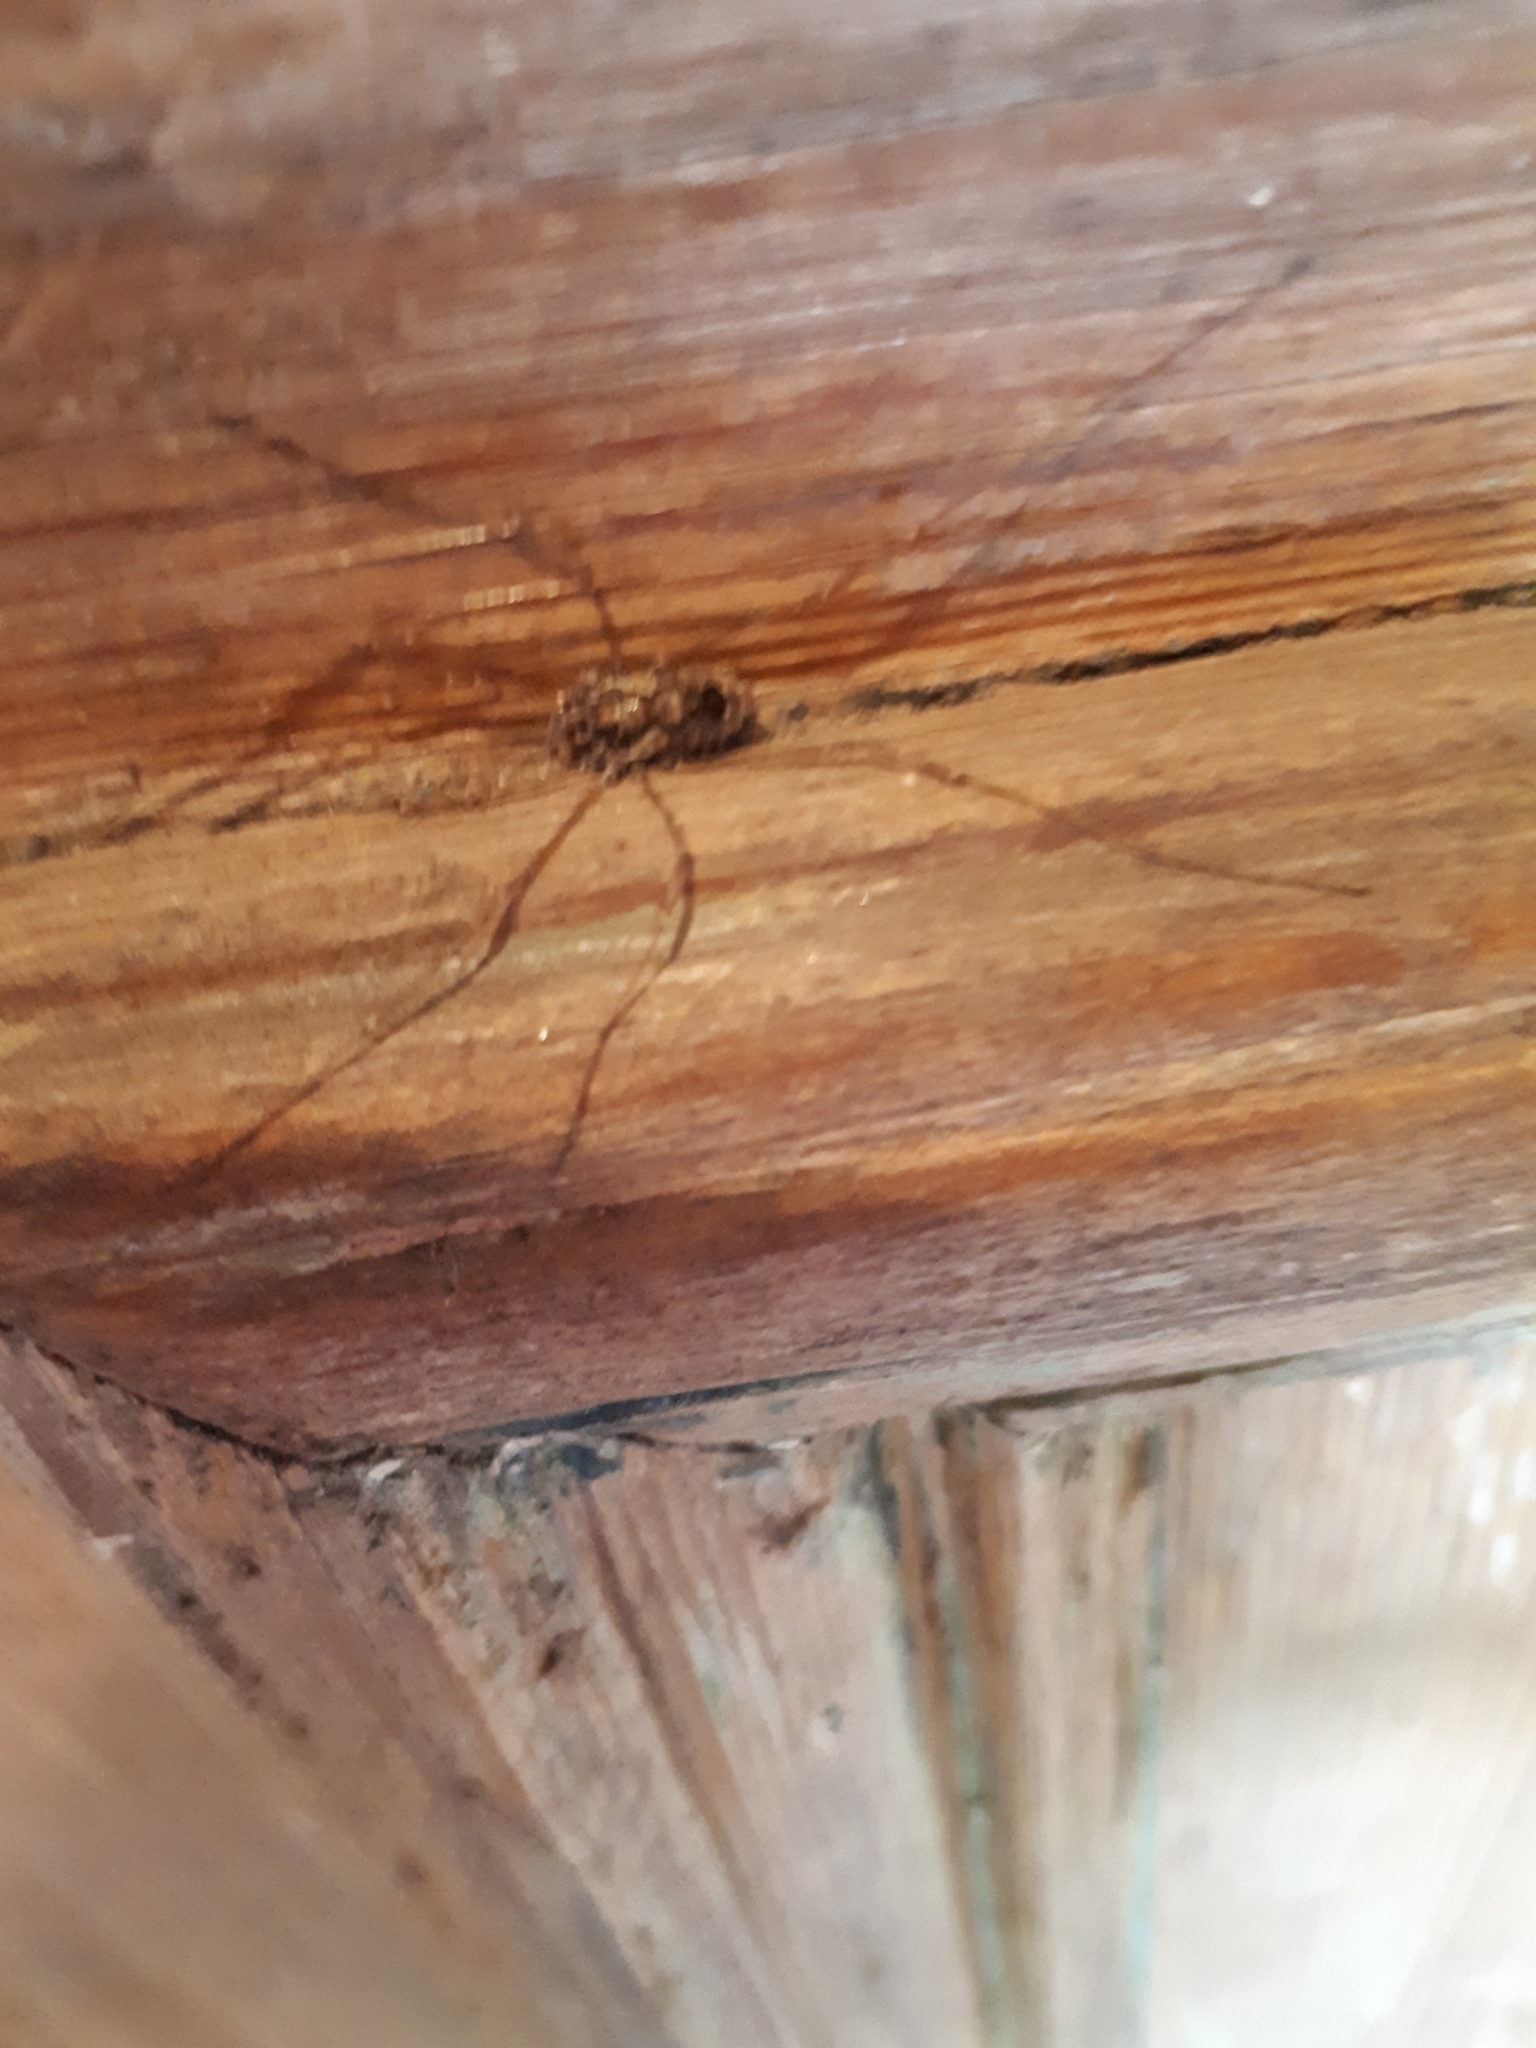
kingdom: Animalia
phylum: Arthropoda
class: Arachnida
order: Opiliones
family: Phalangiidae
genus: Platybunus
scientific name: Platybunus pinetorum
